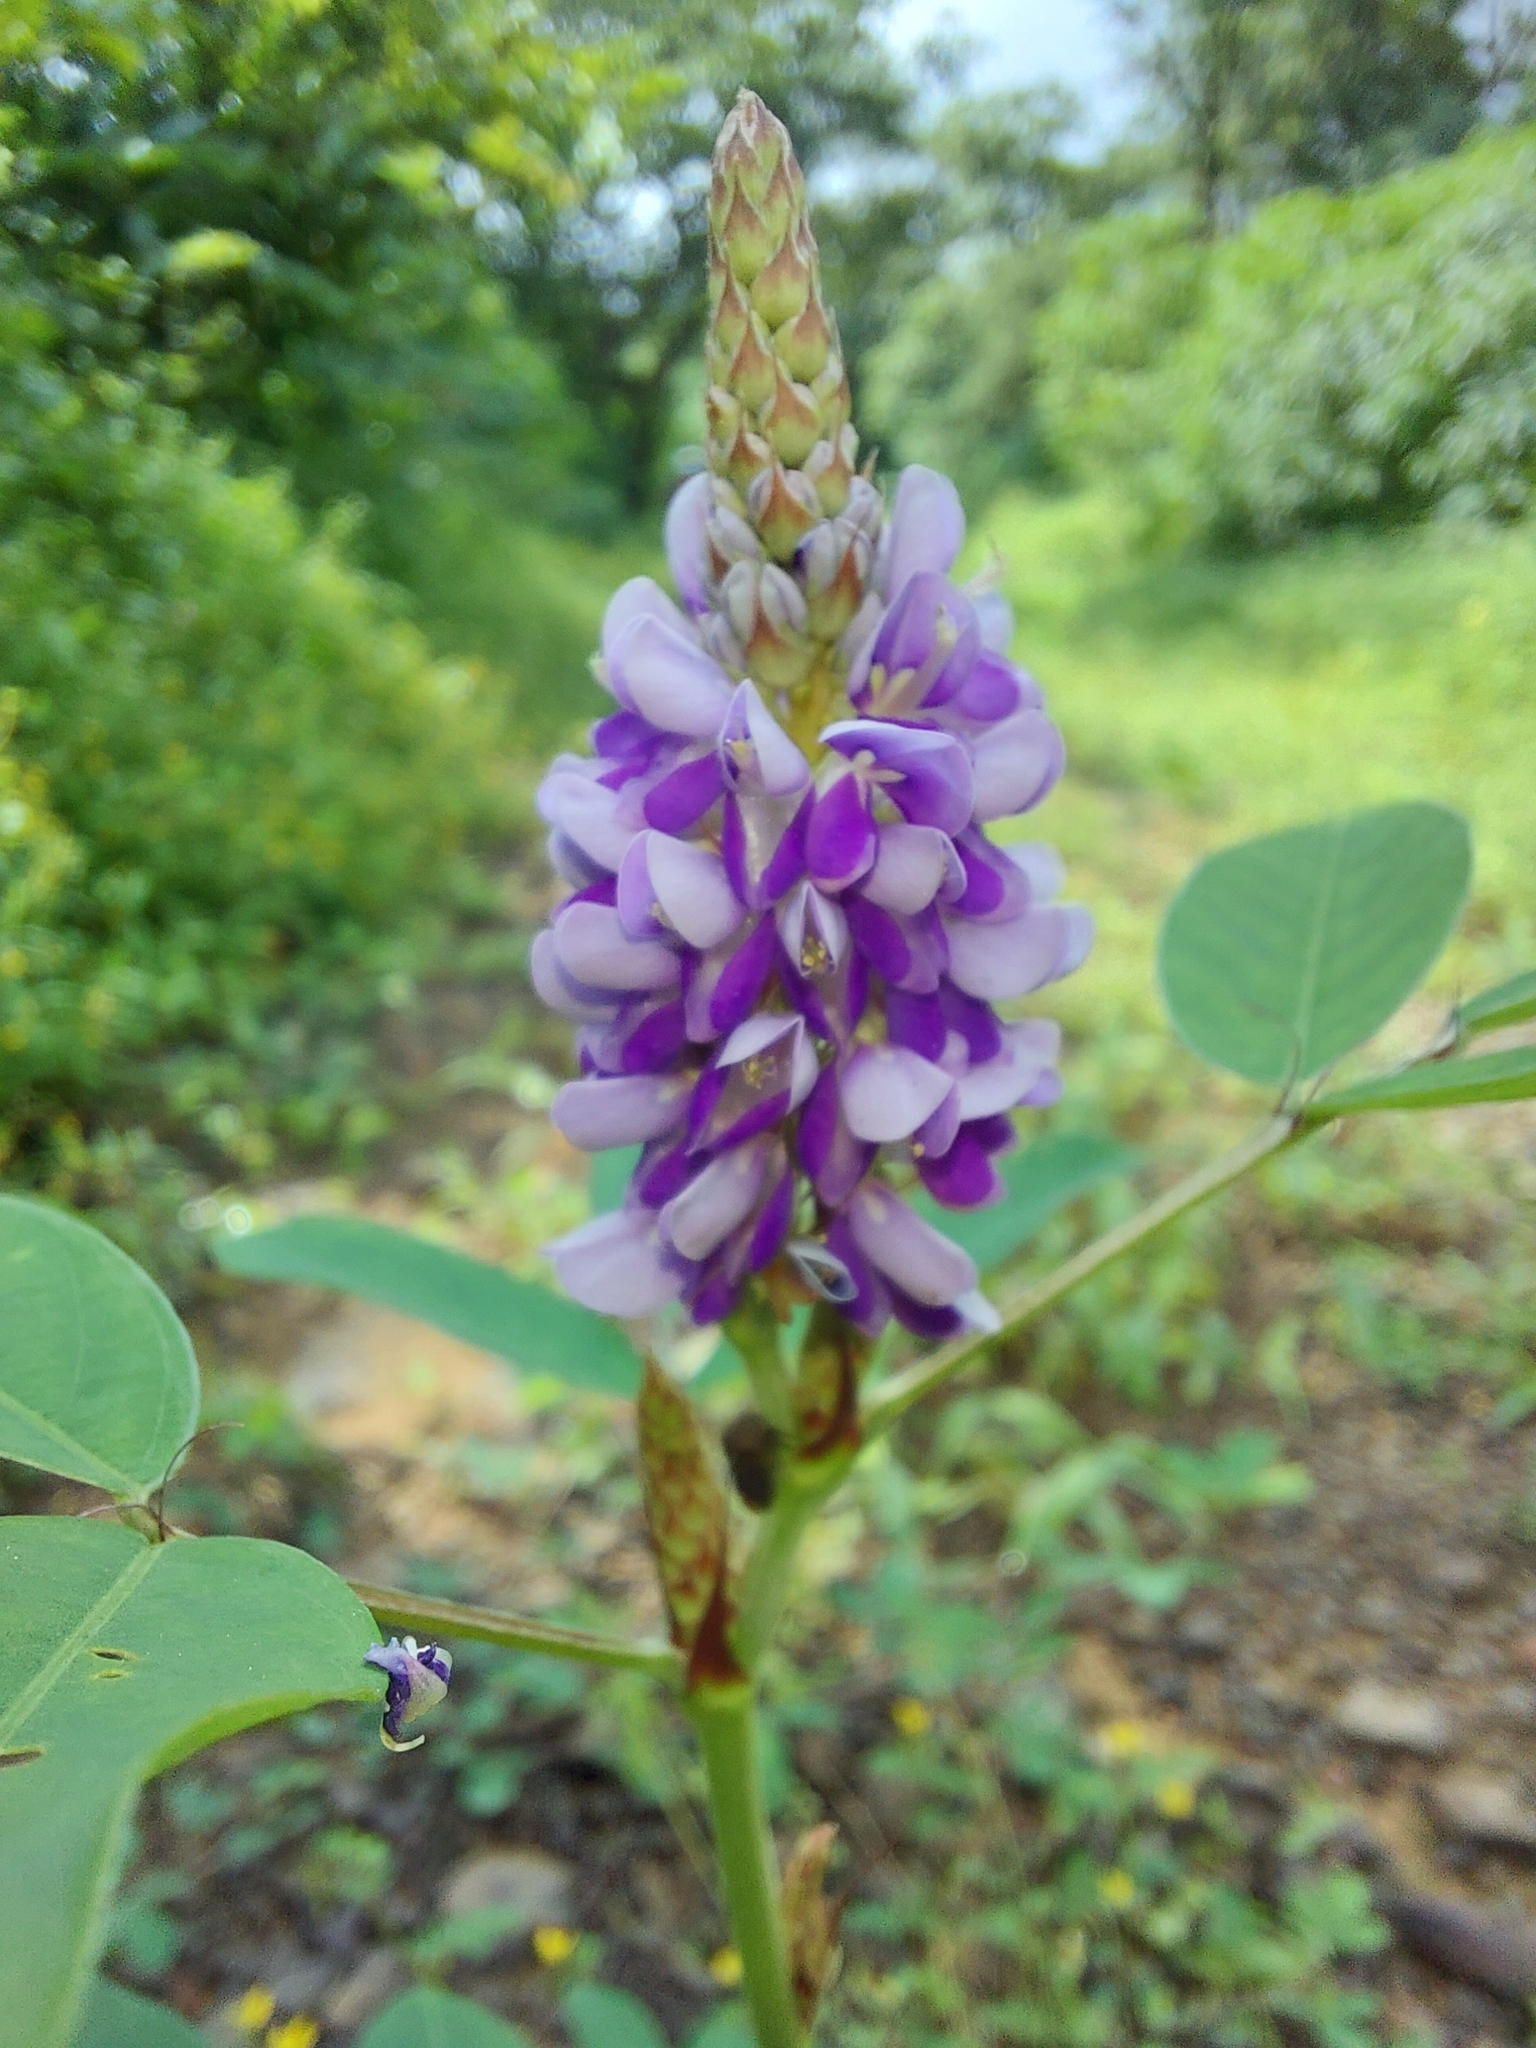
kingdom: Plantae
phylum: Tracheophyta
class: Magnoliopsida
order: Fabales
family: Fabaceae
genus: Grona
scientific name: Grona heterocarpos
